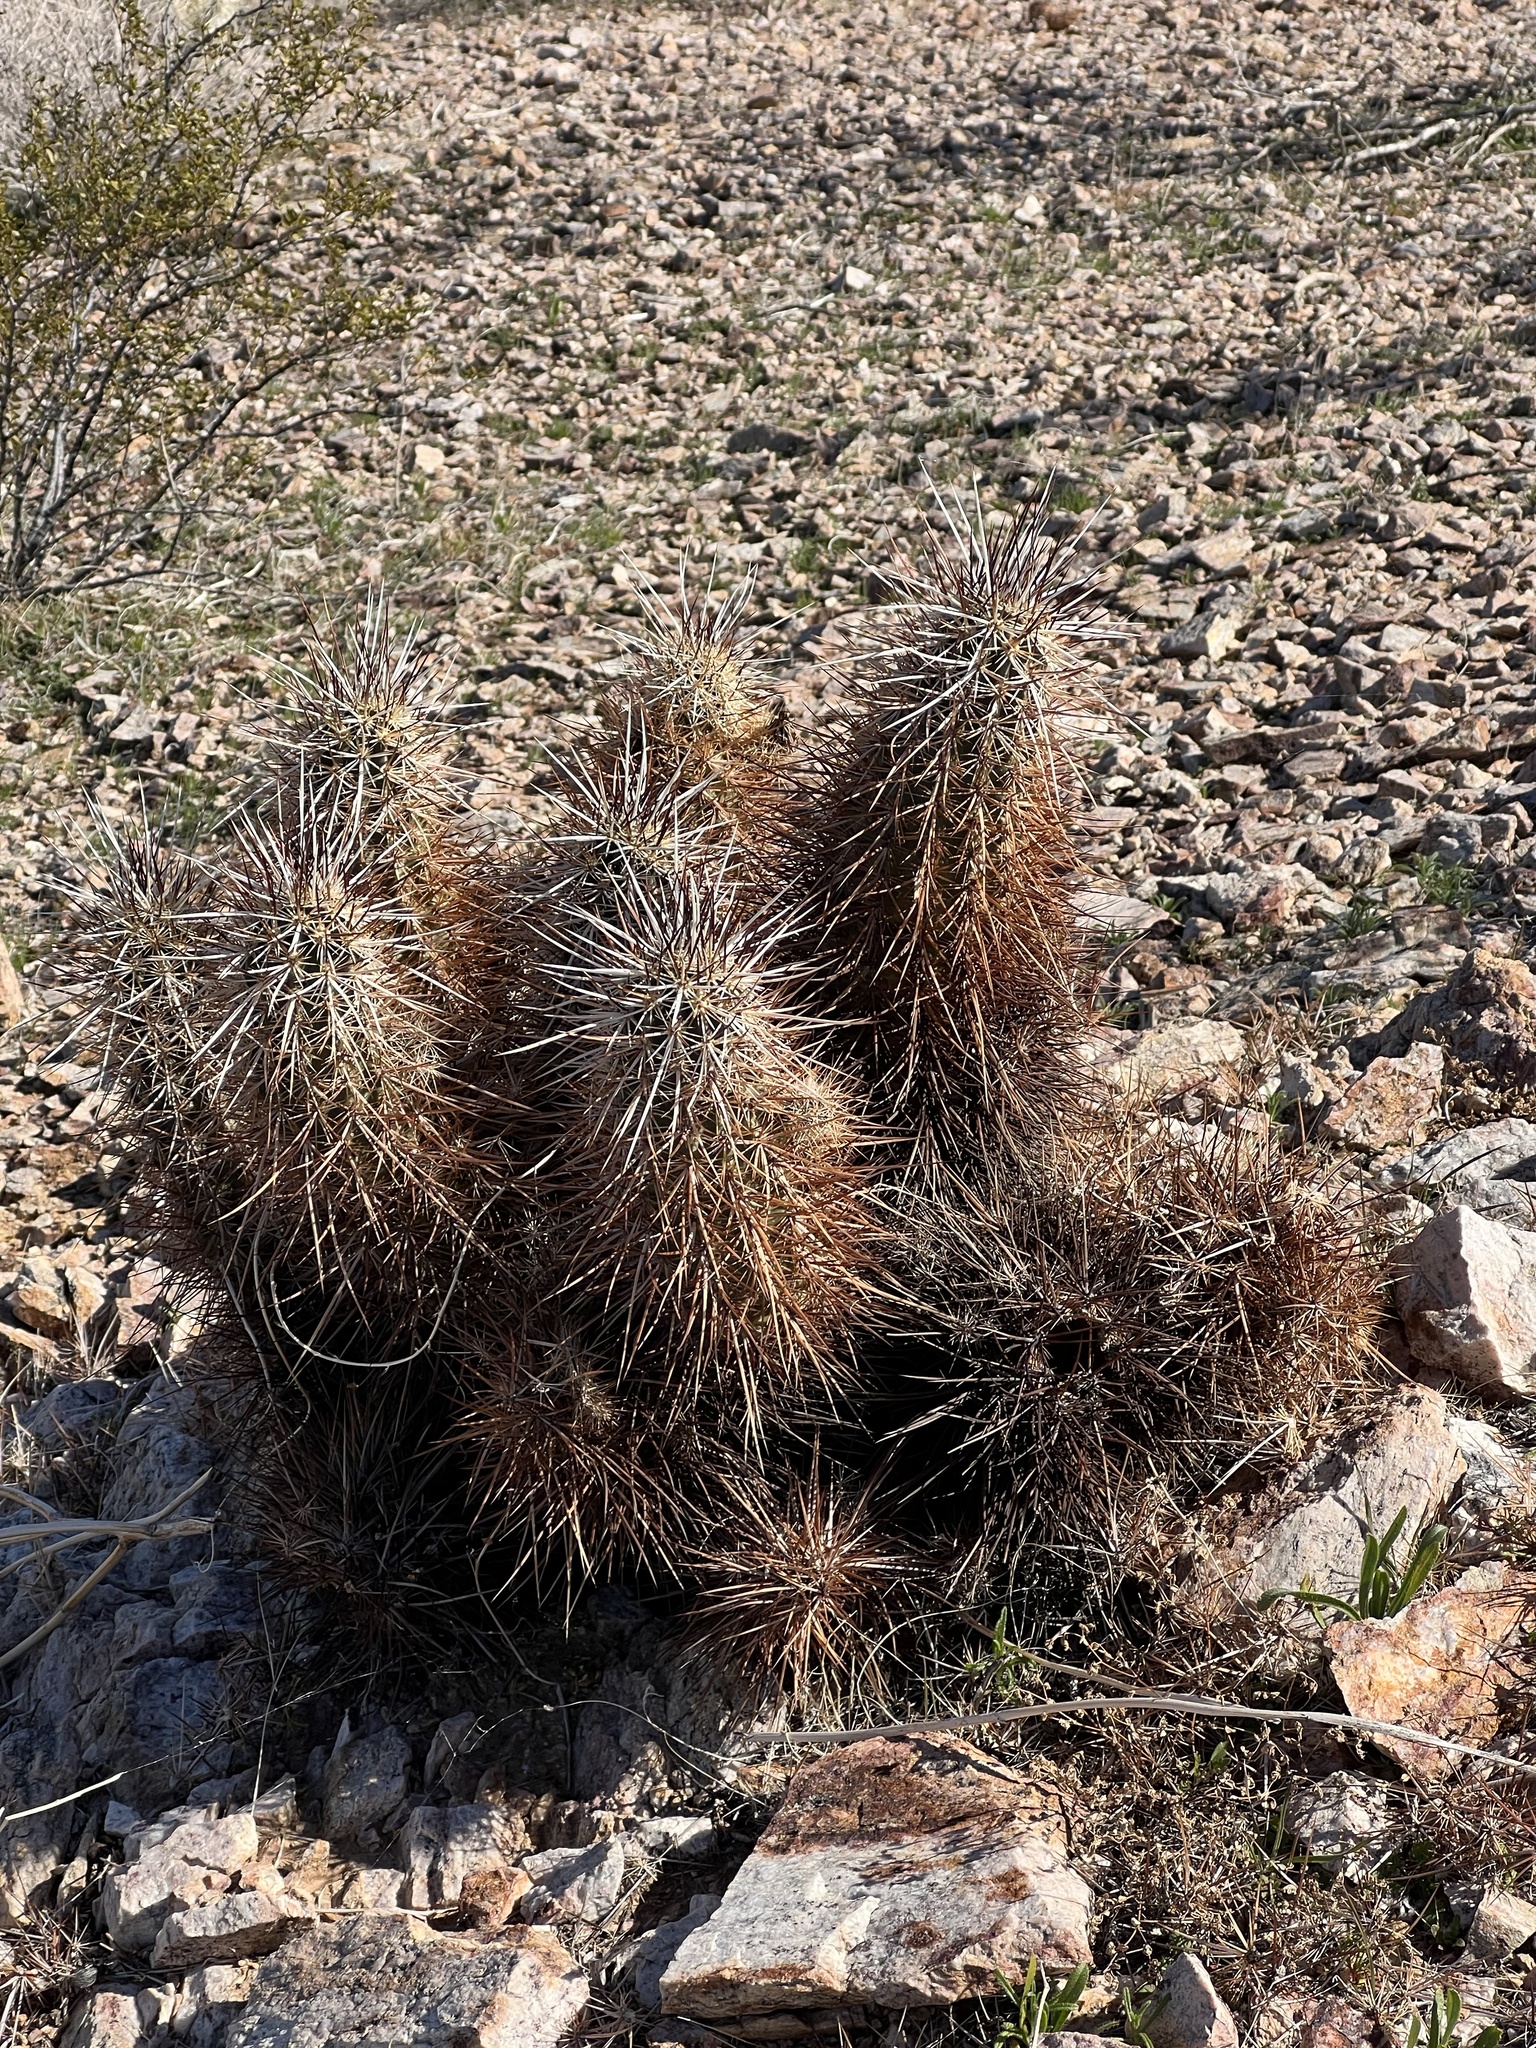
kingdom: Plantae
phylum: Tracheophyta
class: Magnoliopsida
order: Caryophyllales
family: Cactaceae
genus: Echinocereus
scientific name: Echinocereus engelmannii
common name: Engelmann's hedgehog cactus
